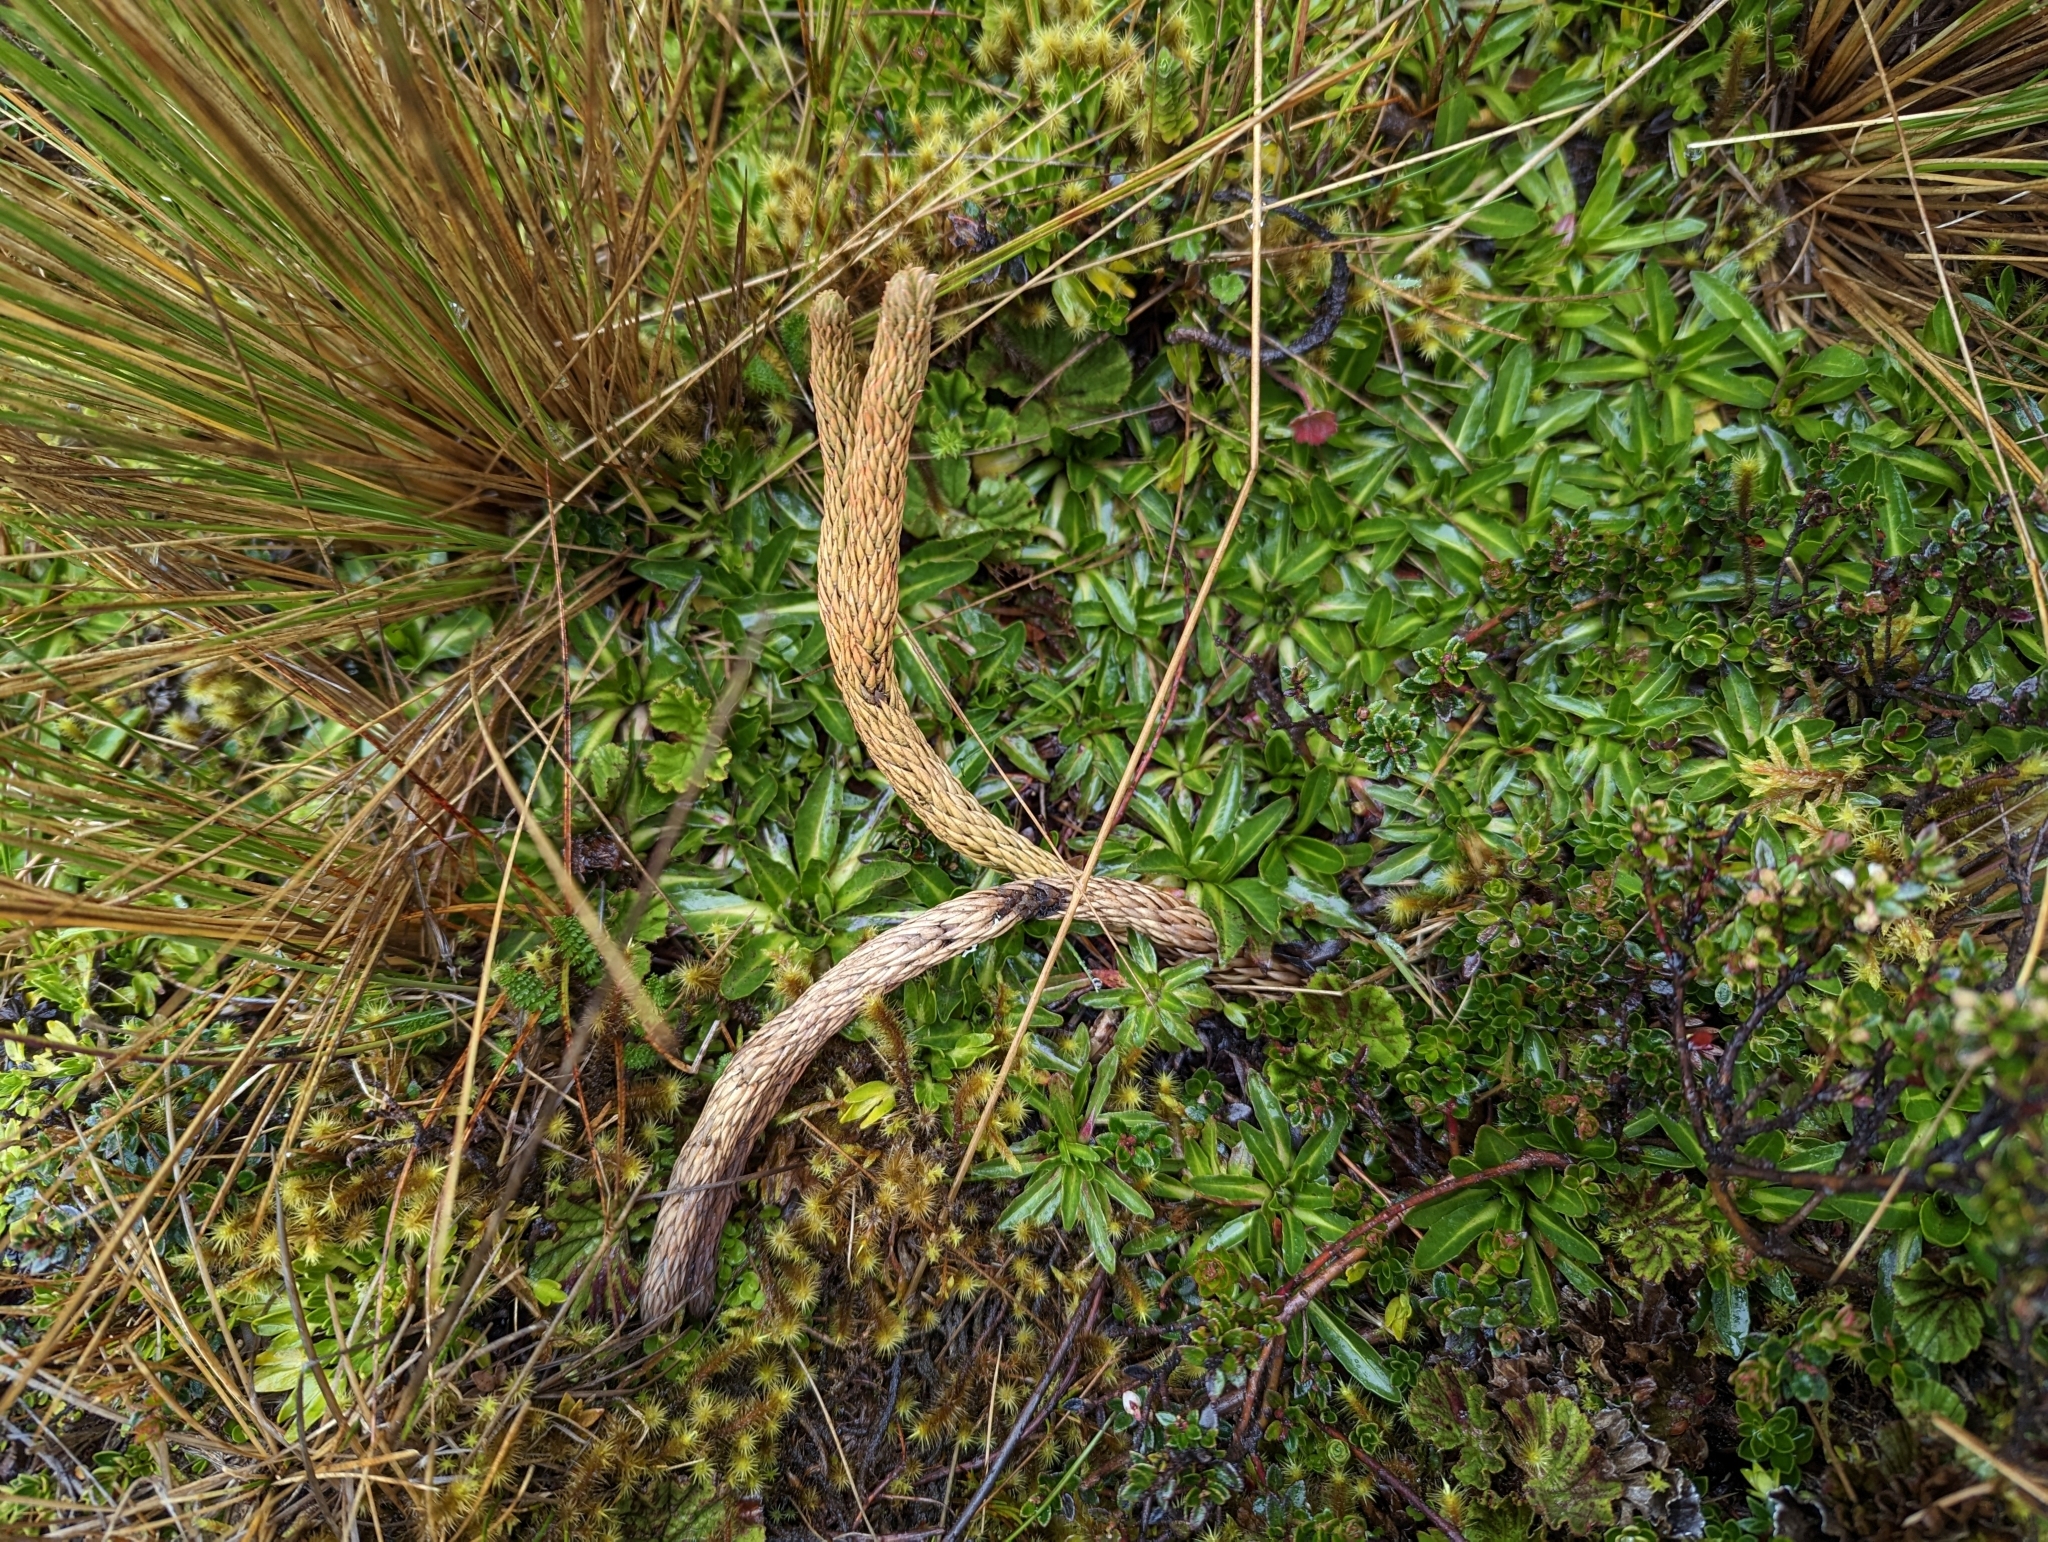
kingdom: Plantae
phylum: Tracheophyta
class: Lycopodiopsida
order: Lycopodiales
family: Lycopodiaceae
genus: Phlegmariurus
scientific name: Phlegmariurus crassus
